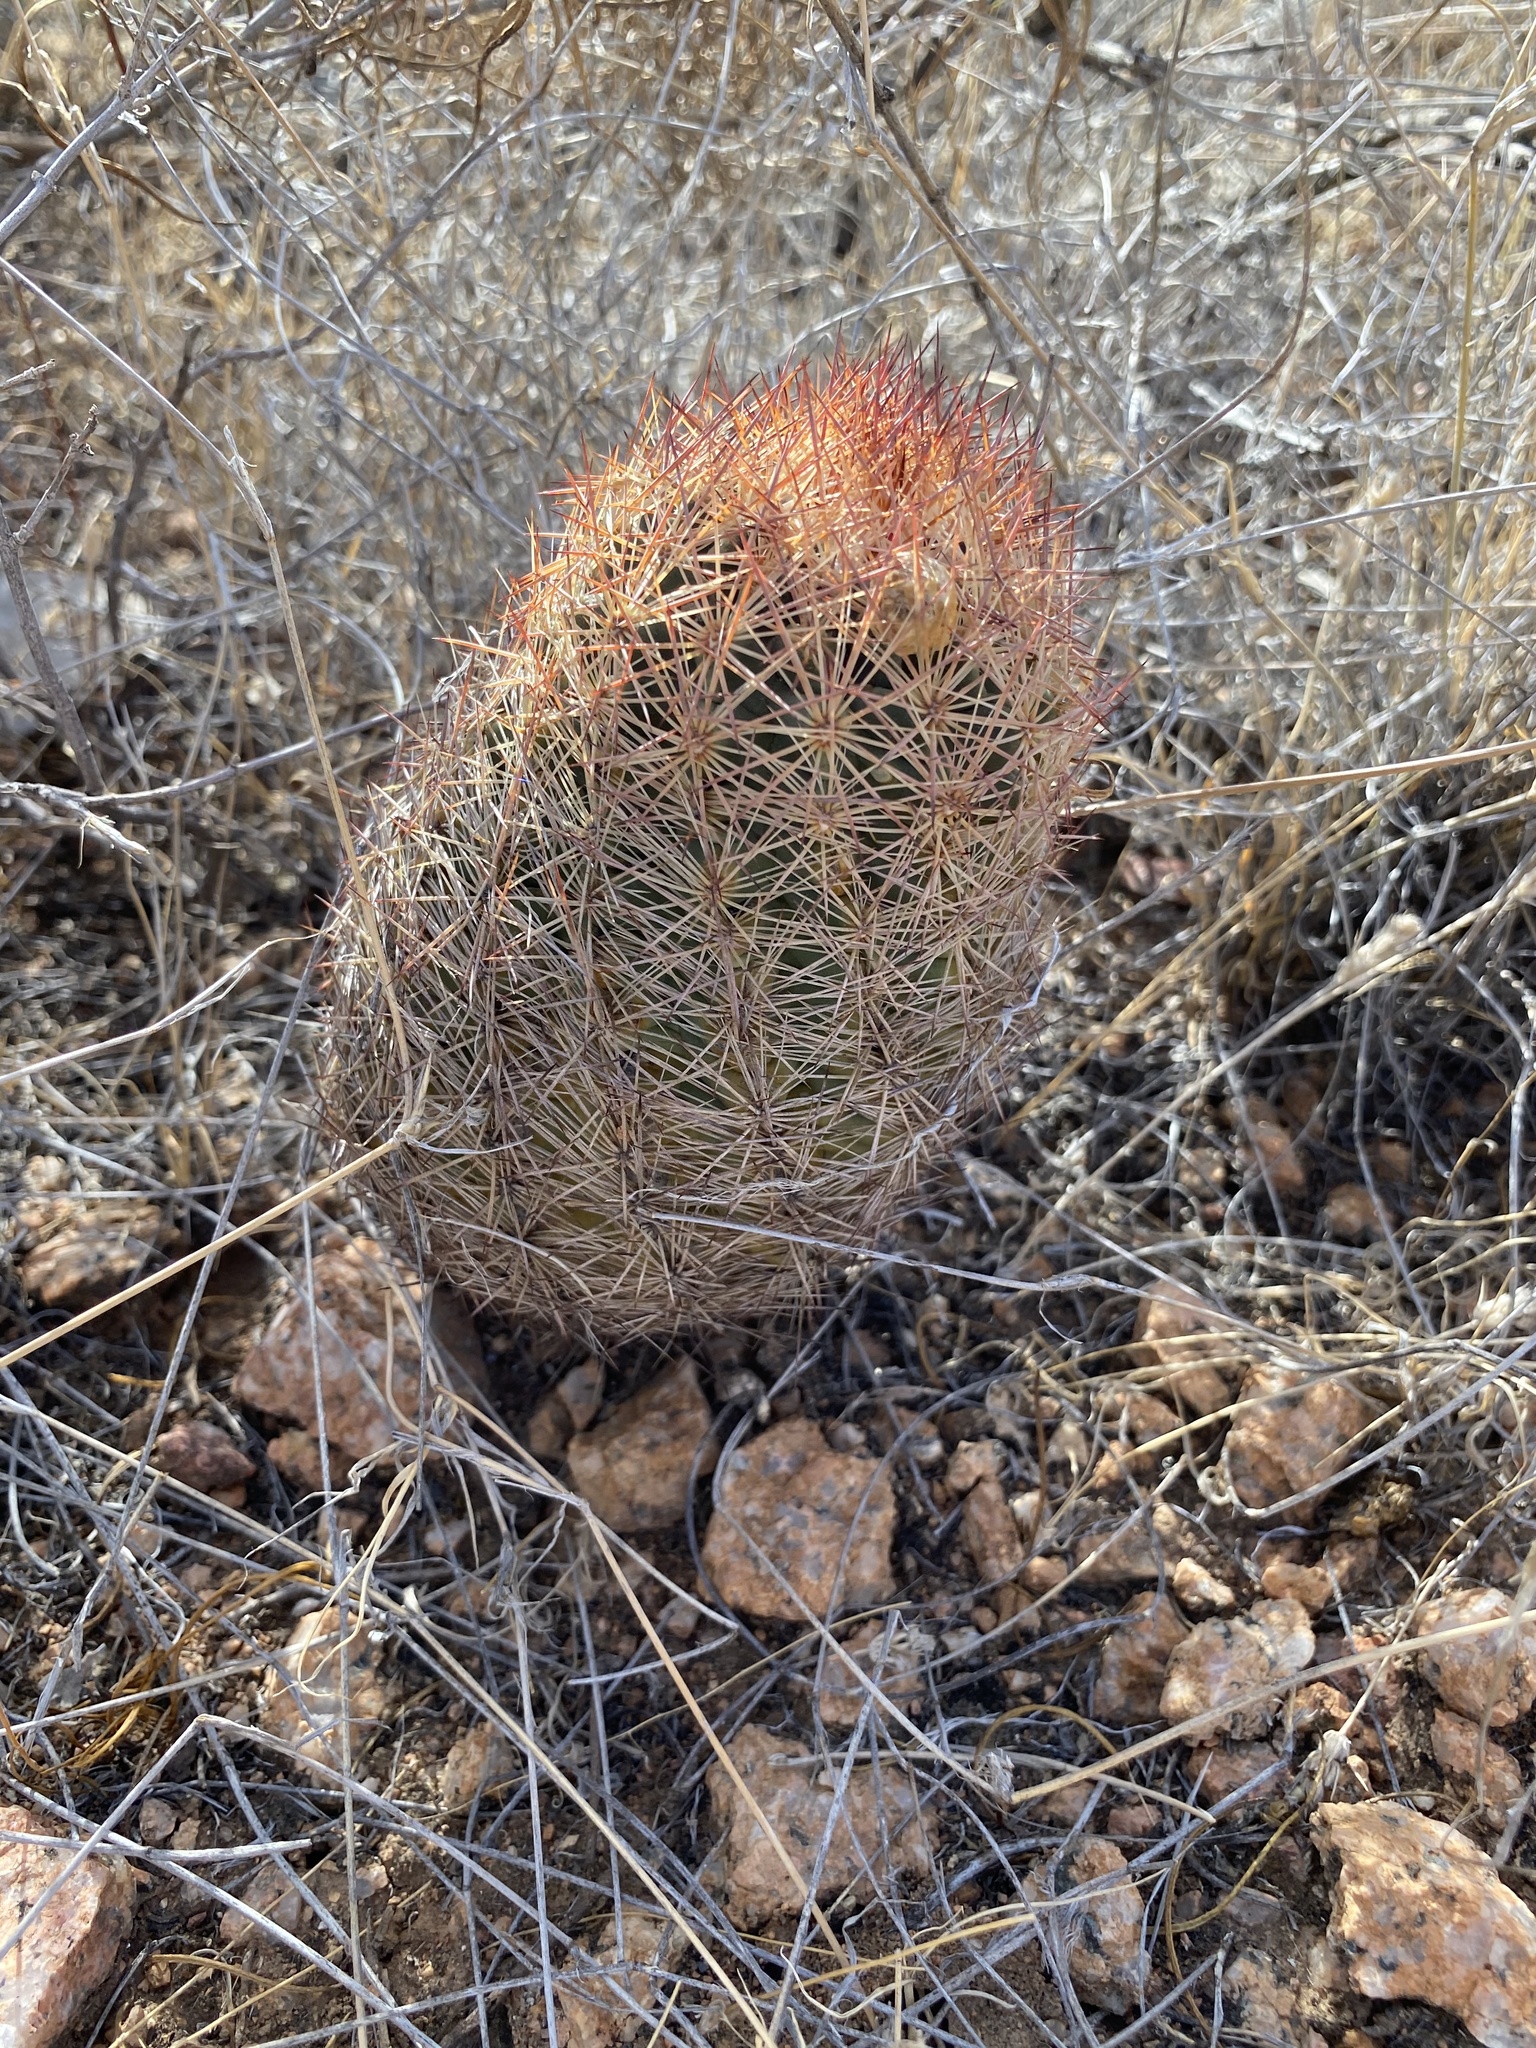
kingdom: Plantae
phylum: Tracheophyta
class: Magnoliopsida
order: Caryophyllales
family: Cactaceae
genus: Sclerocactus
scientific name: Sclerocactus intertextus
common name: White fish-hook cactus
